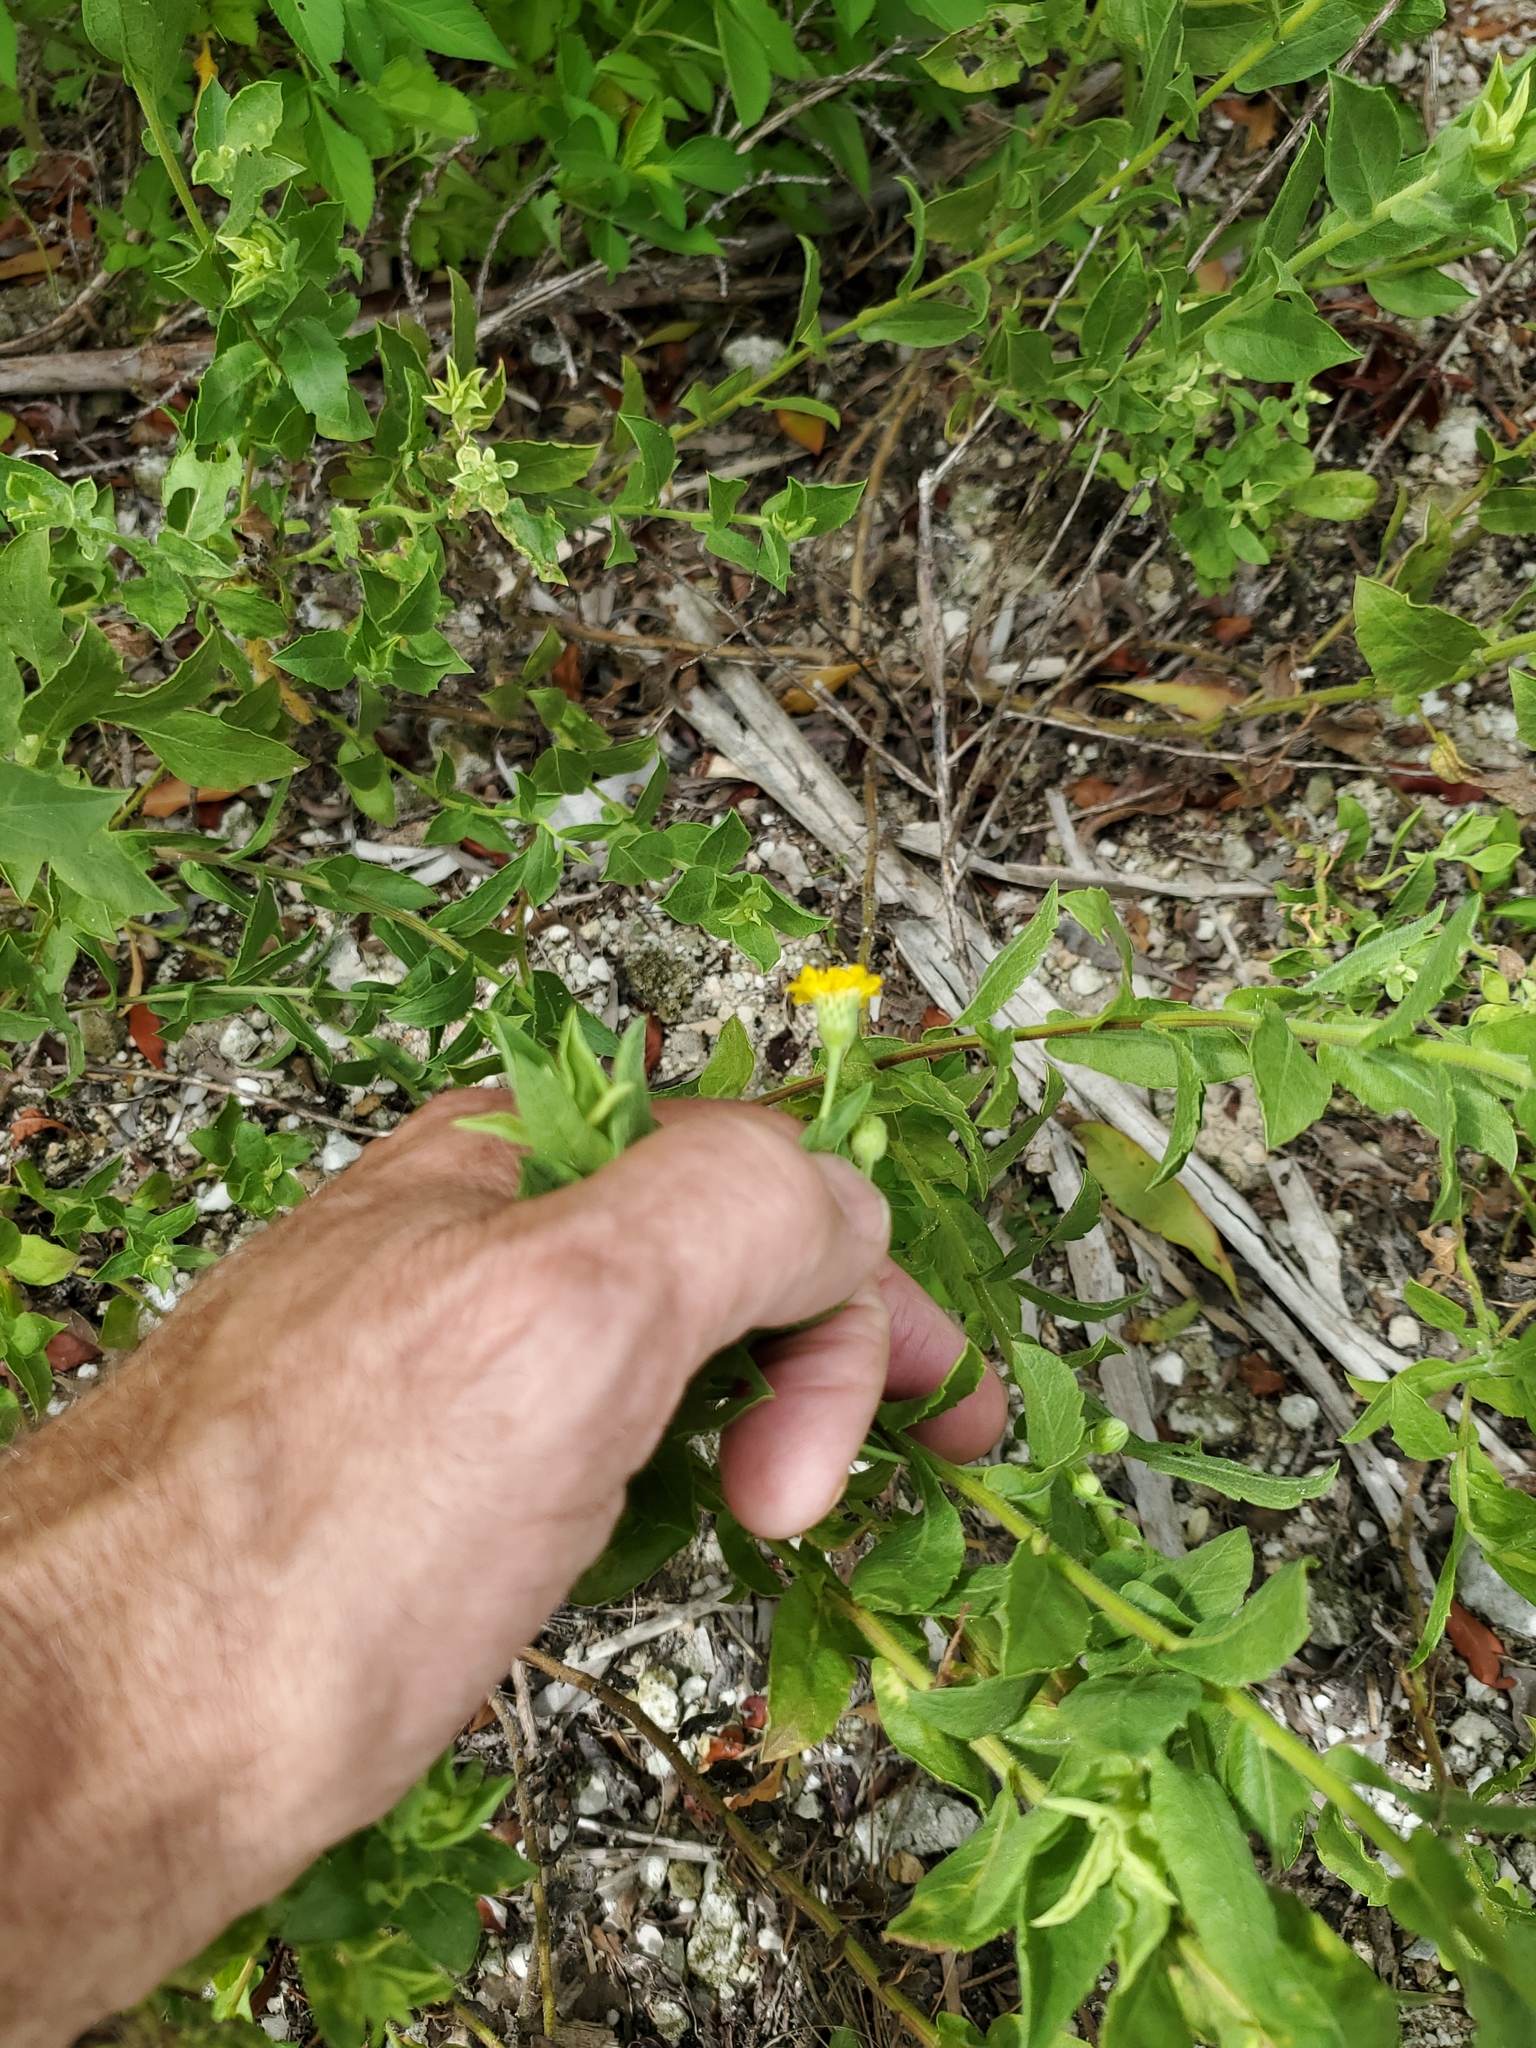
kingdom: Plantae
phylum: Tracheophyta
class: Magnoliopsida
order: Asterales
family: Asteraceae
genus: Heterotheca
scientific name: Heterotheca subaxillaris
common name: Camphorweed
